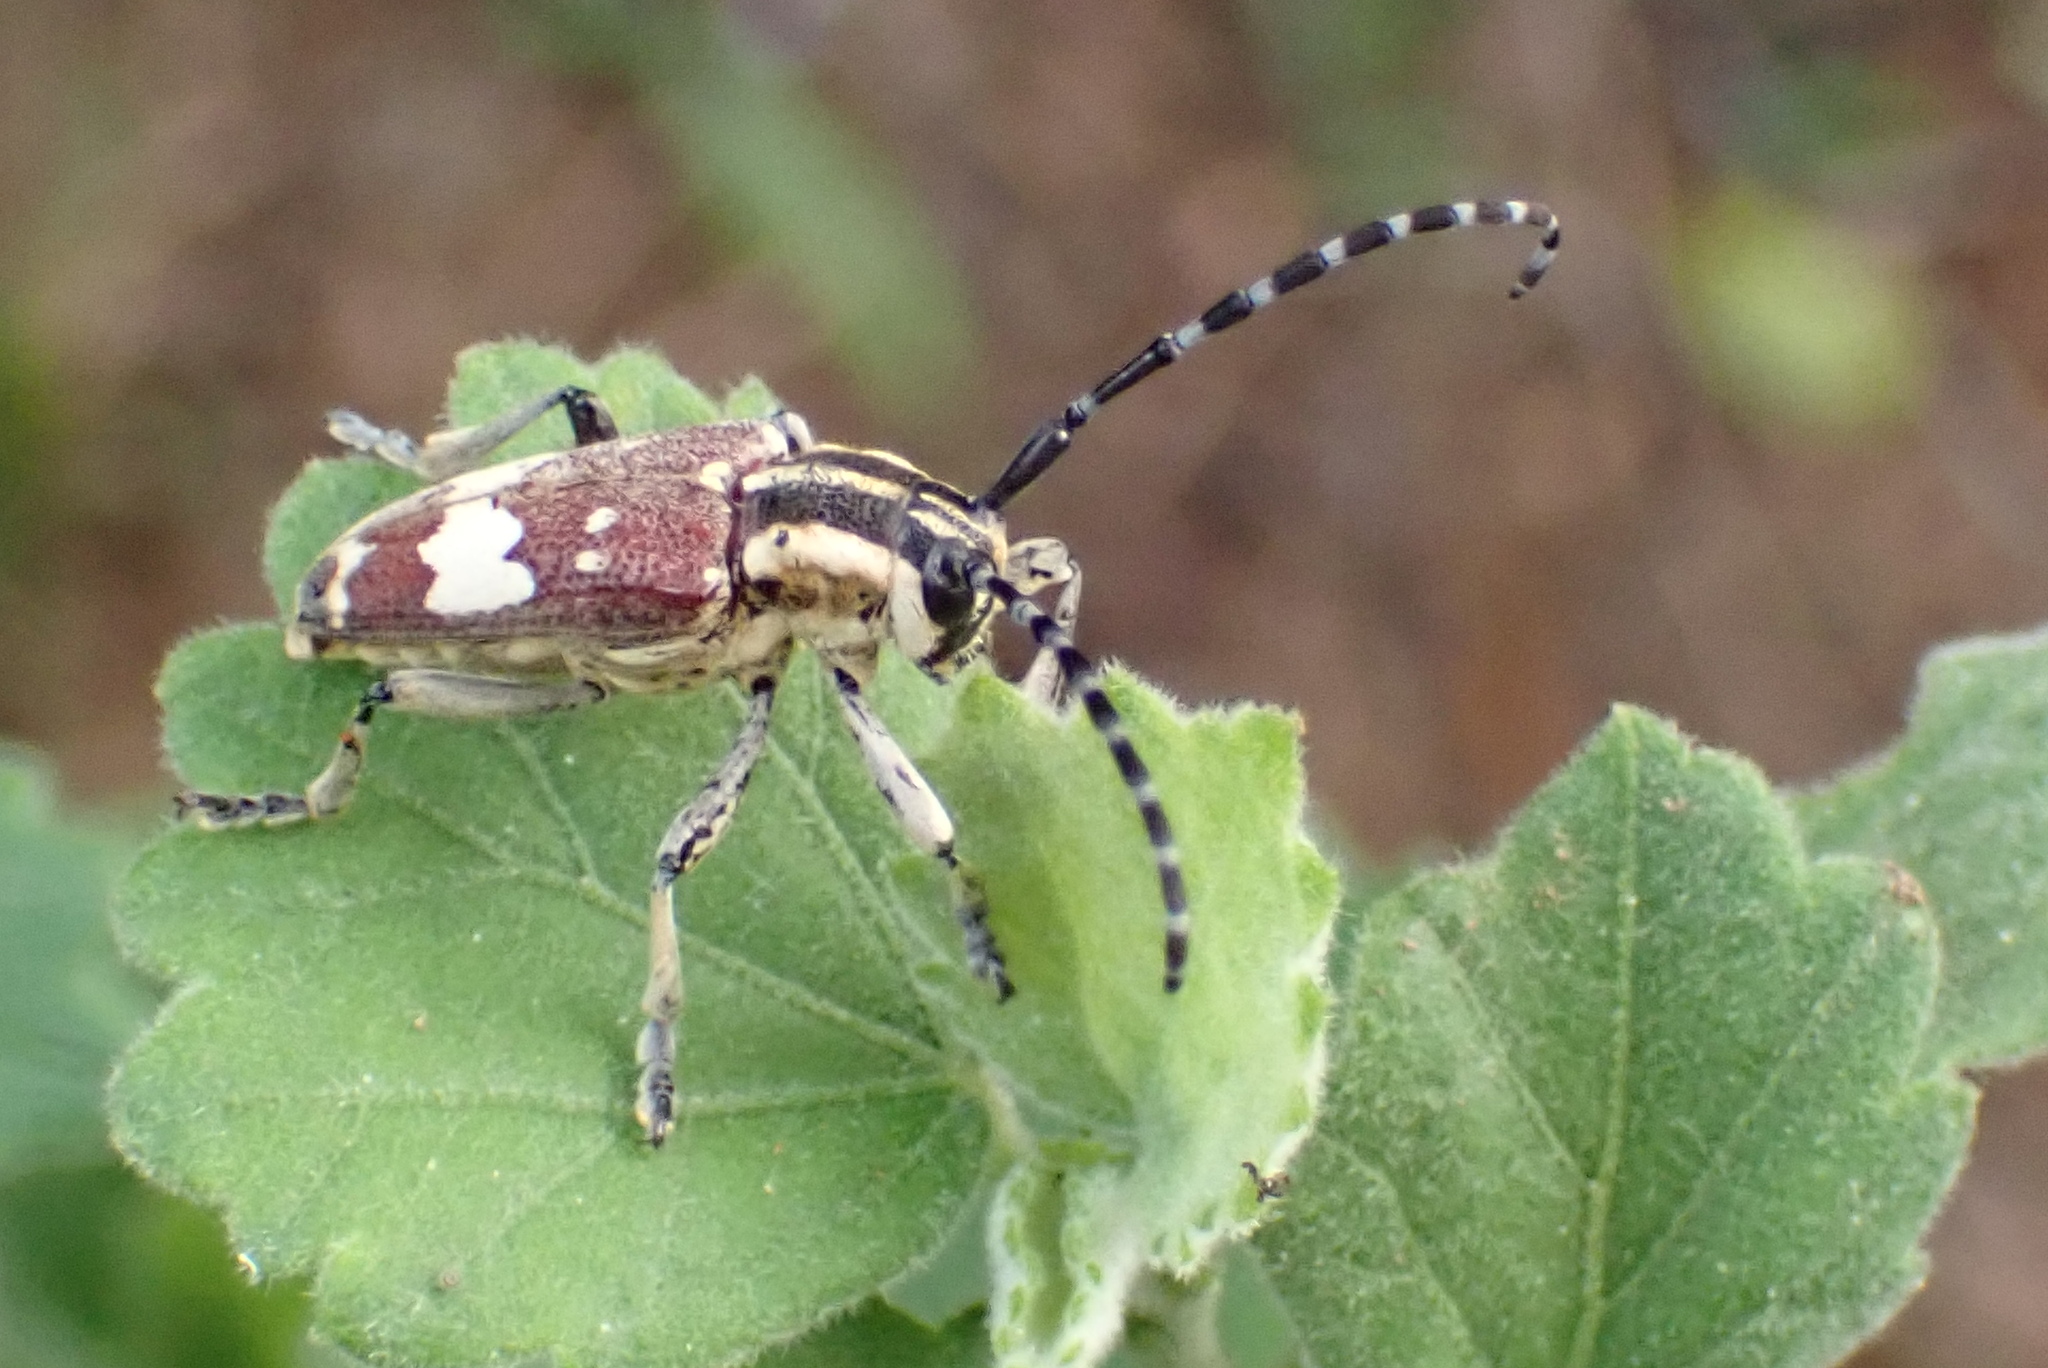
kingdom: Animalia
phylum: Arthropoda
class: Insecta
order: Coleoptera
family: Cerambycidae
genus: Glenea
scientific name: Glenea apicalis
